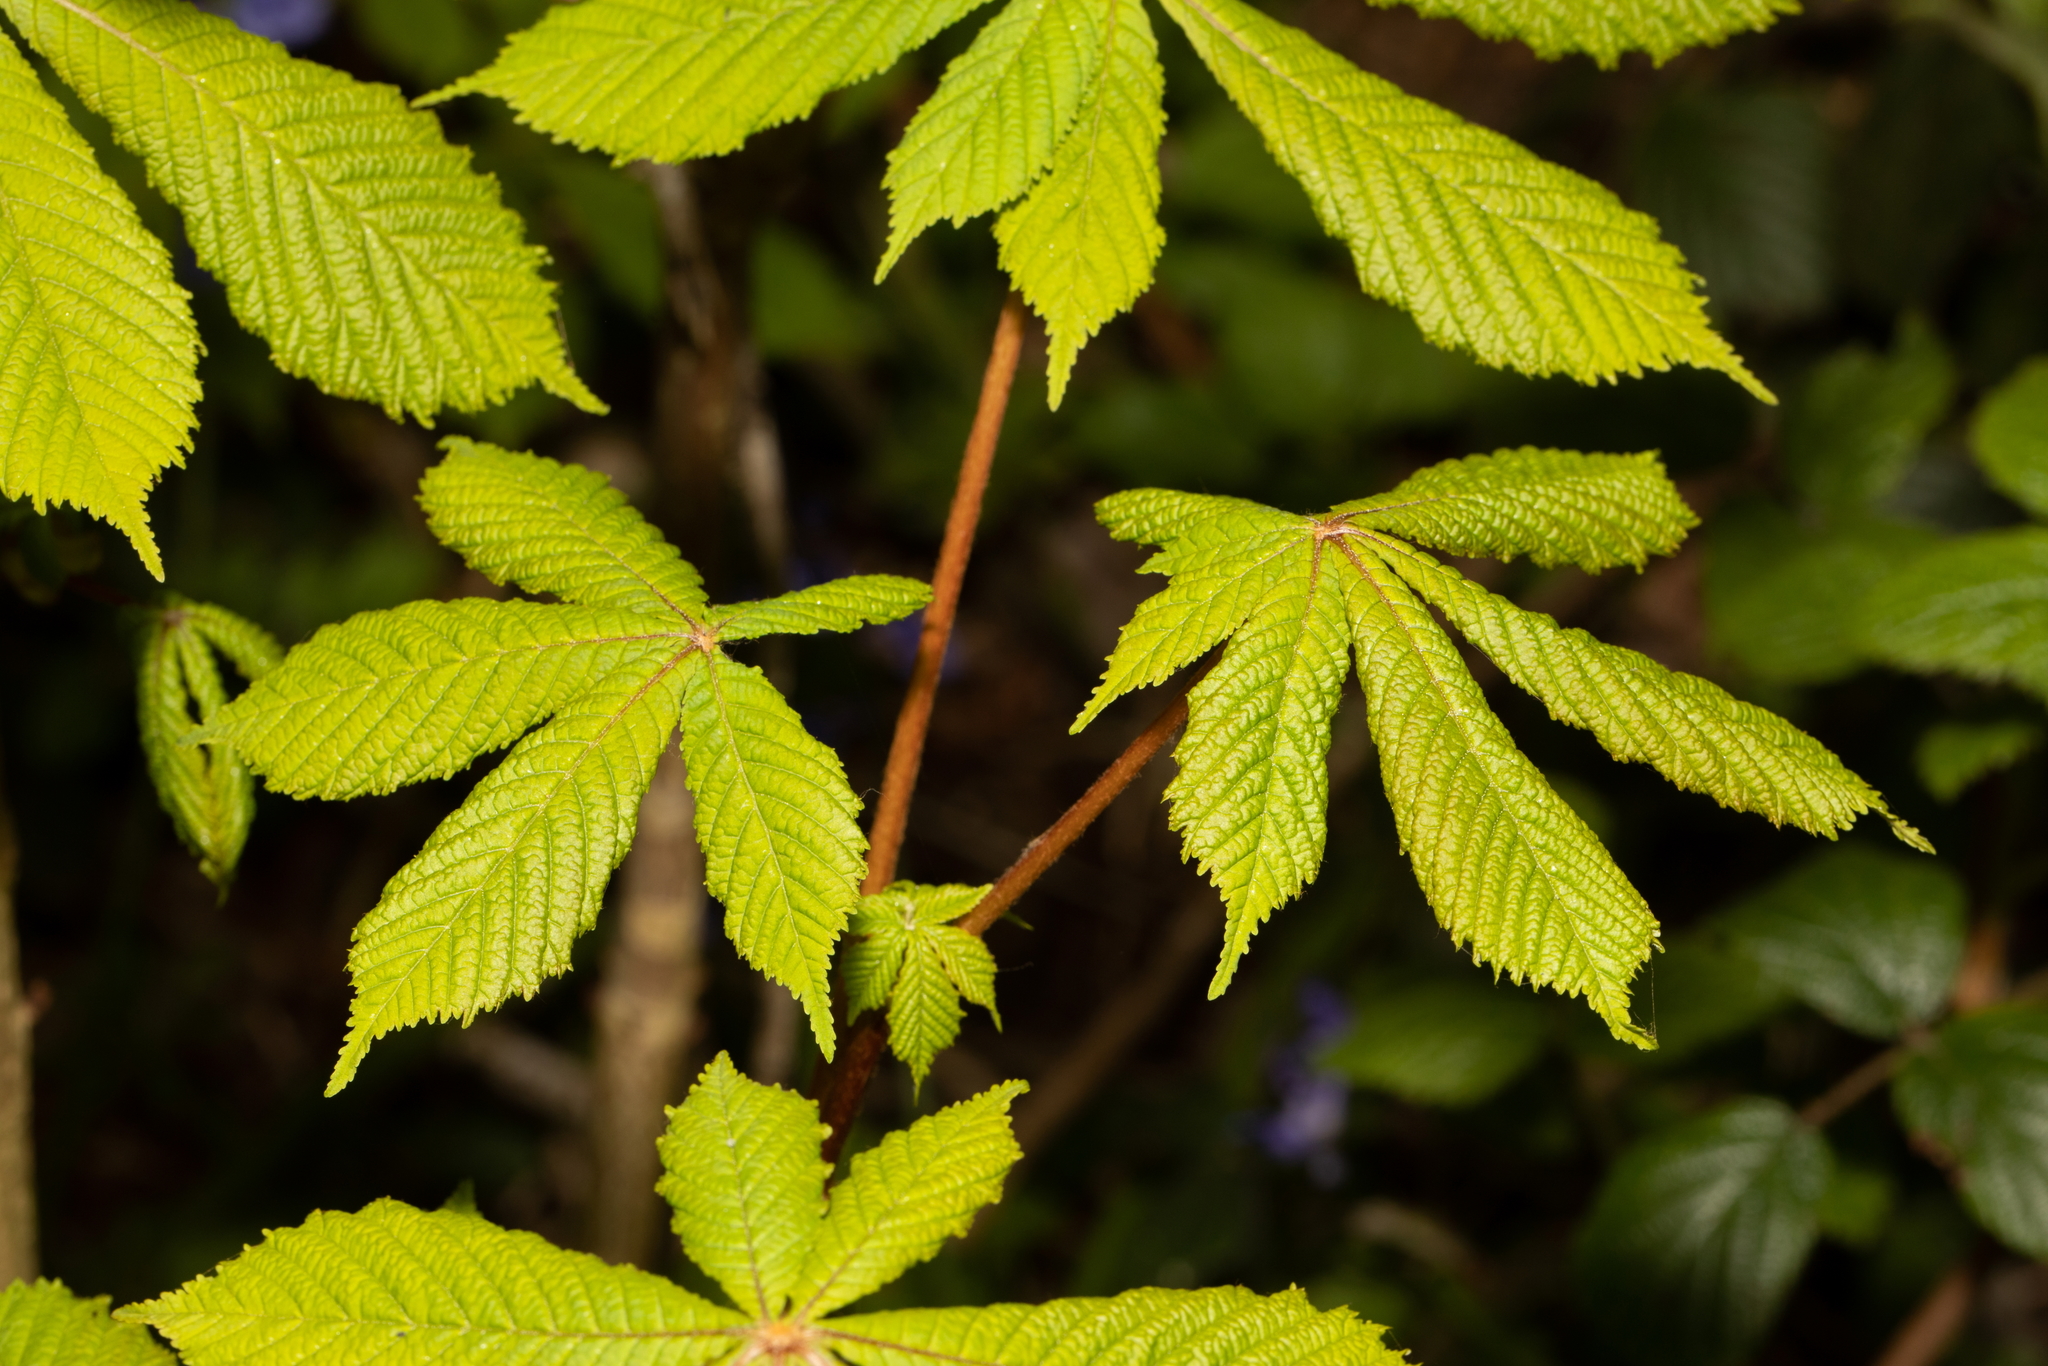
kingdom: Plantae
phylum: Tracheophyta
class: Magnoliopsida
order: Sapindales
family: Sapindaceae
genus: Aesculus
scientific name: Aesculus hippocastanum
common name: Horse-chestnut
